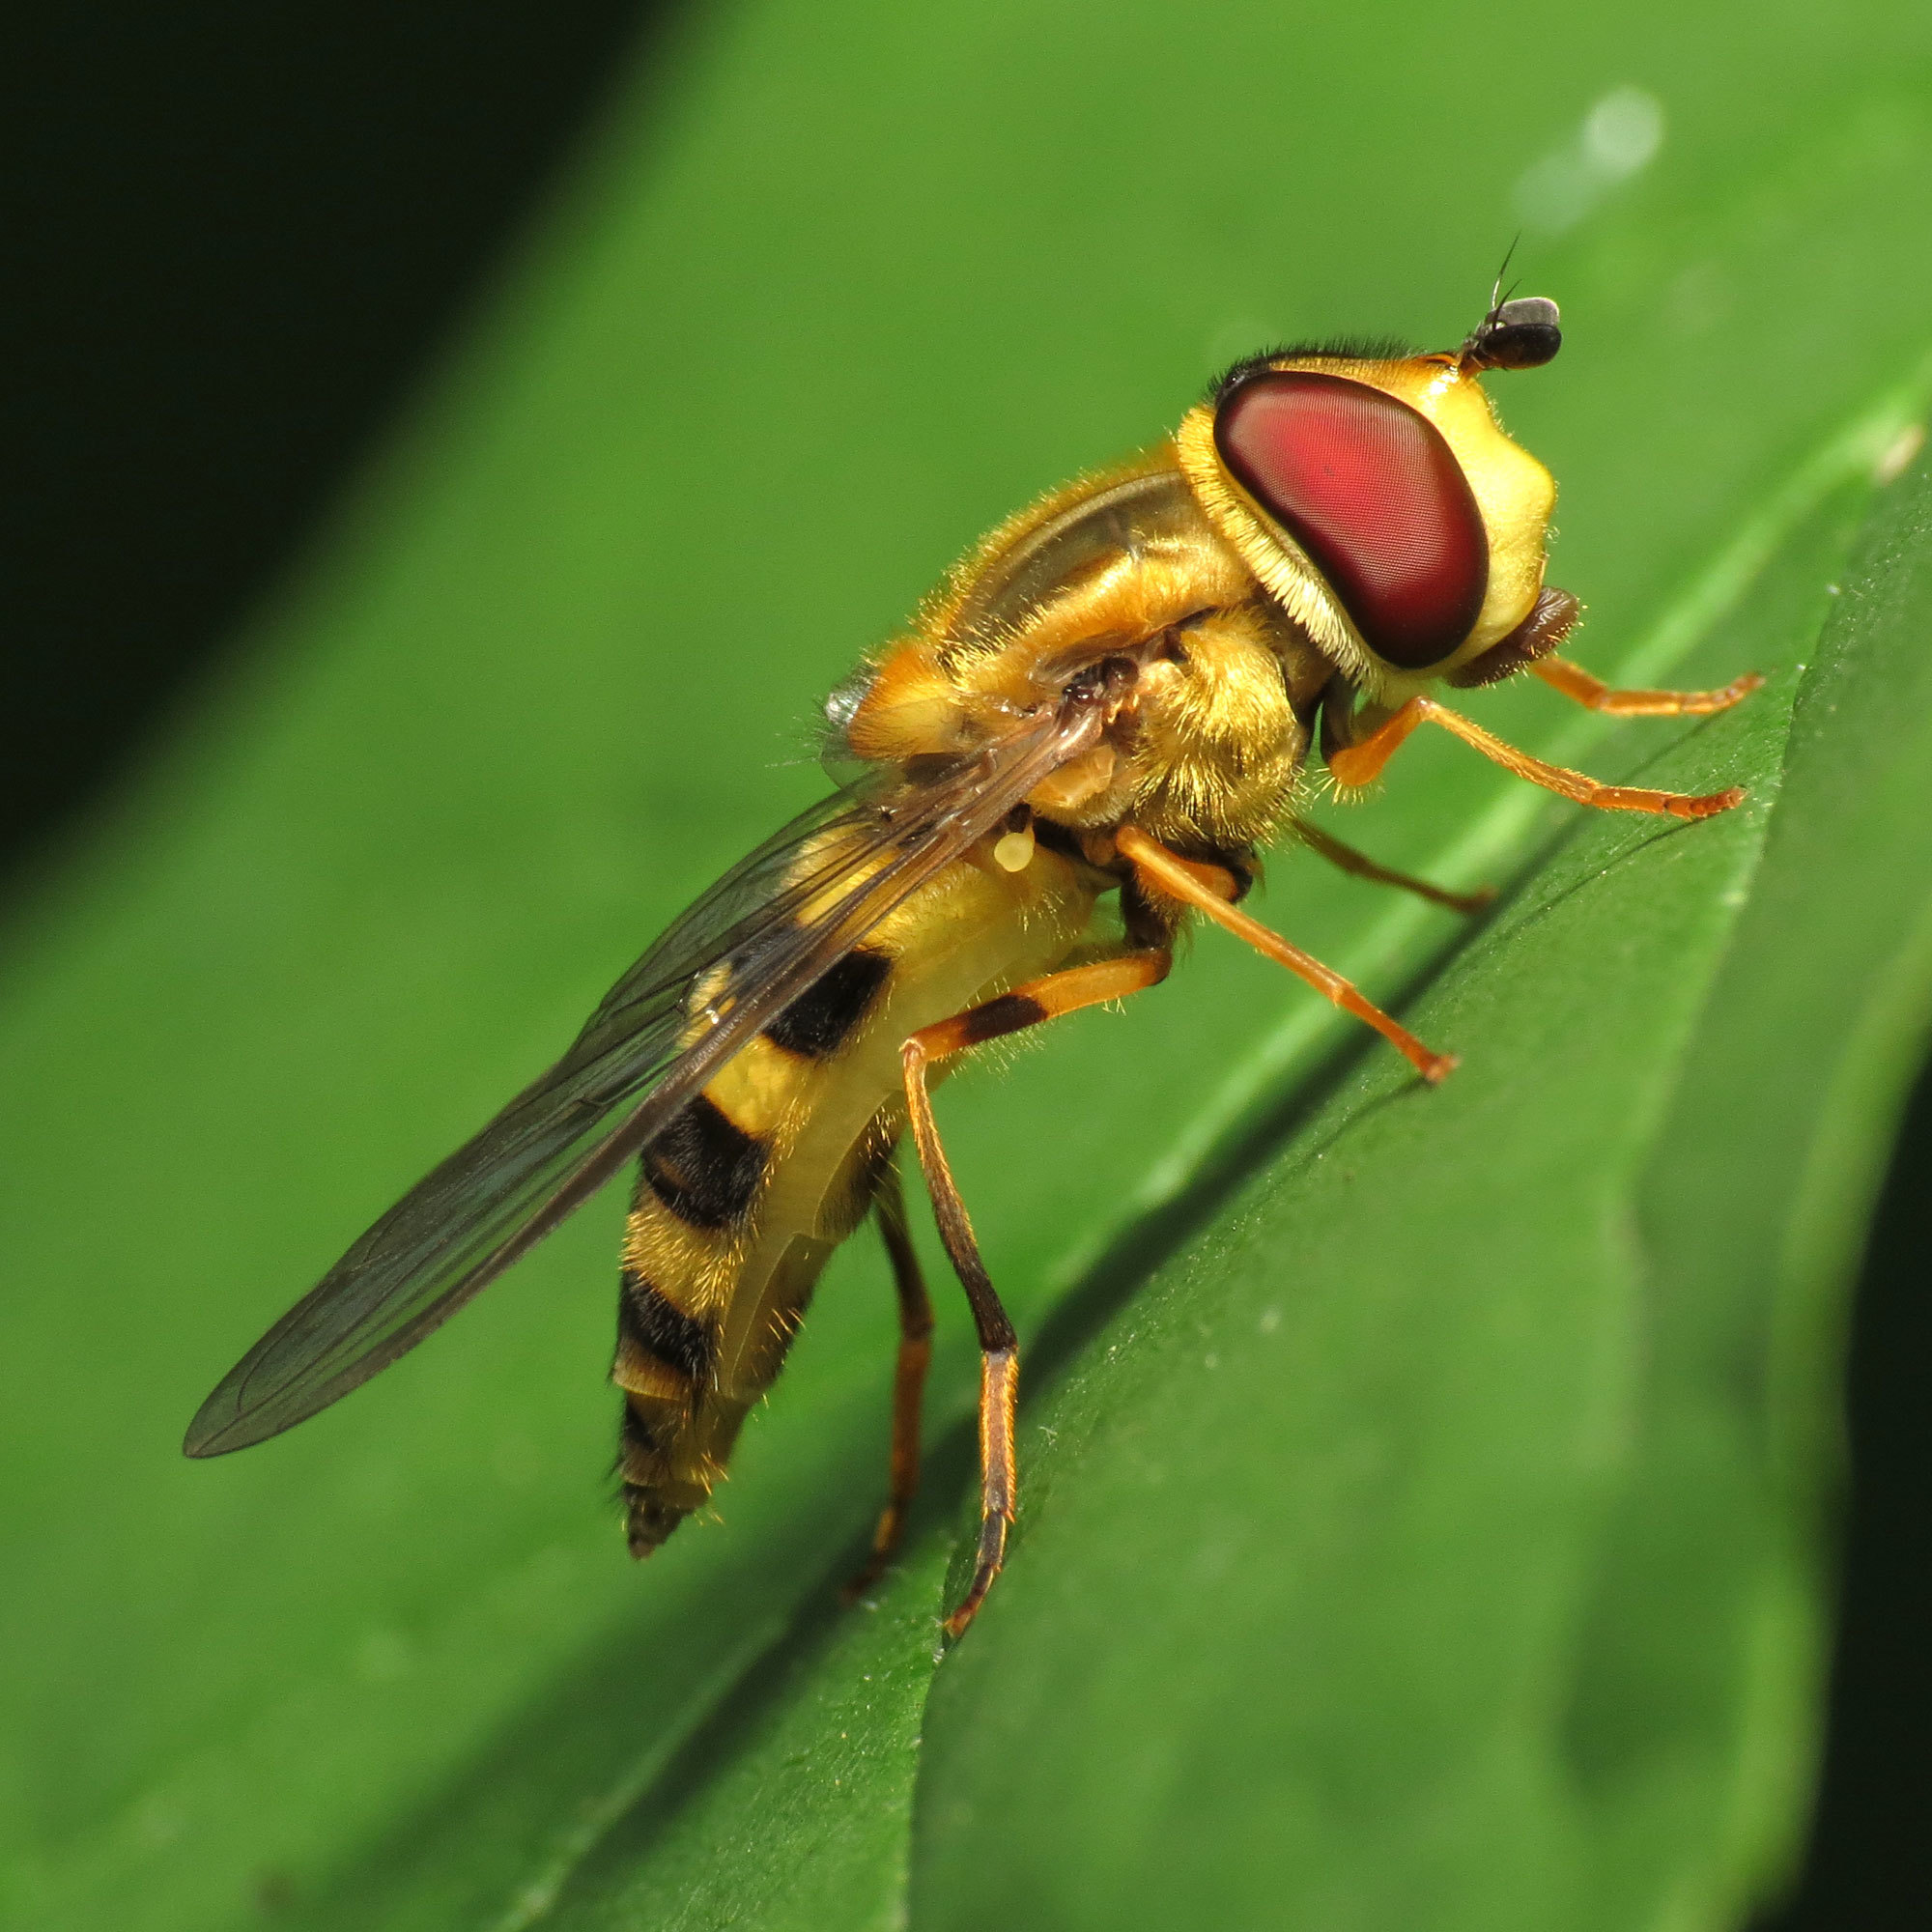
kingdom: Animalia
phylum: Arthropoda
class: Insecta
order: Diptera
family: Syrphidae
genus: Syrphus
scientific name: Syrphus knabi
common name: Eastern flower fly
